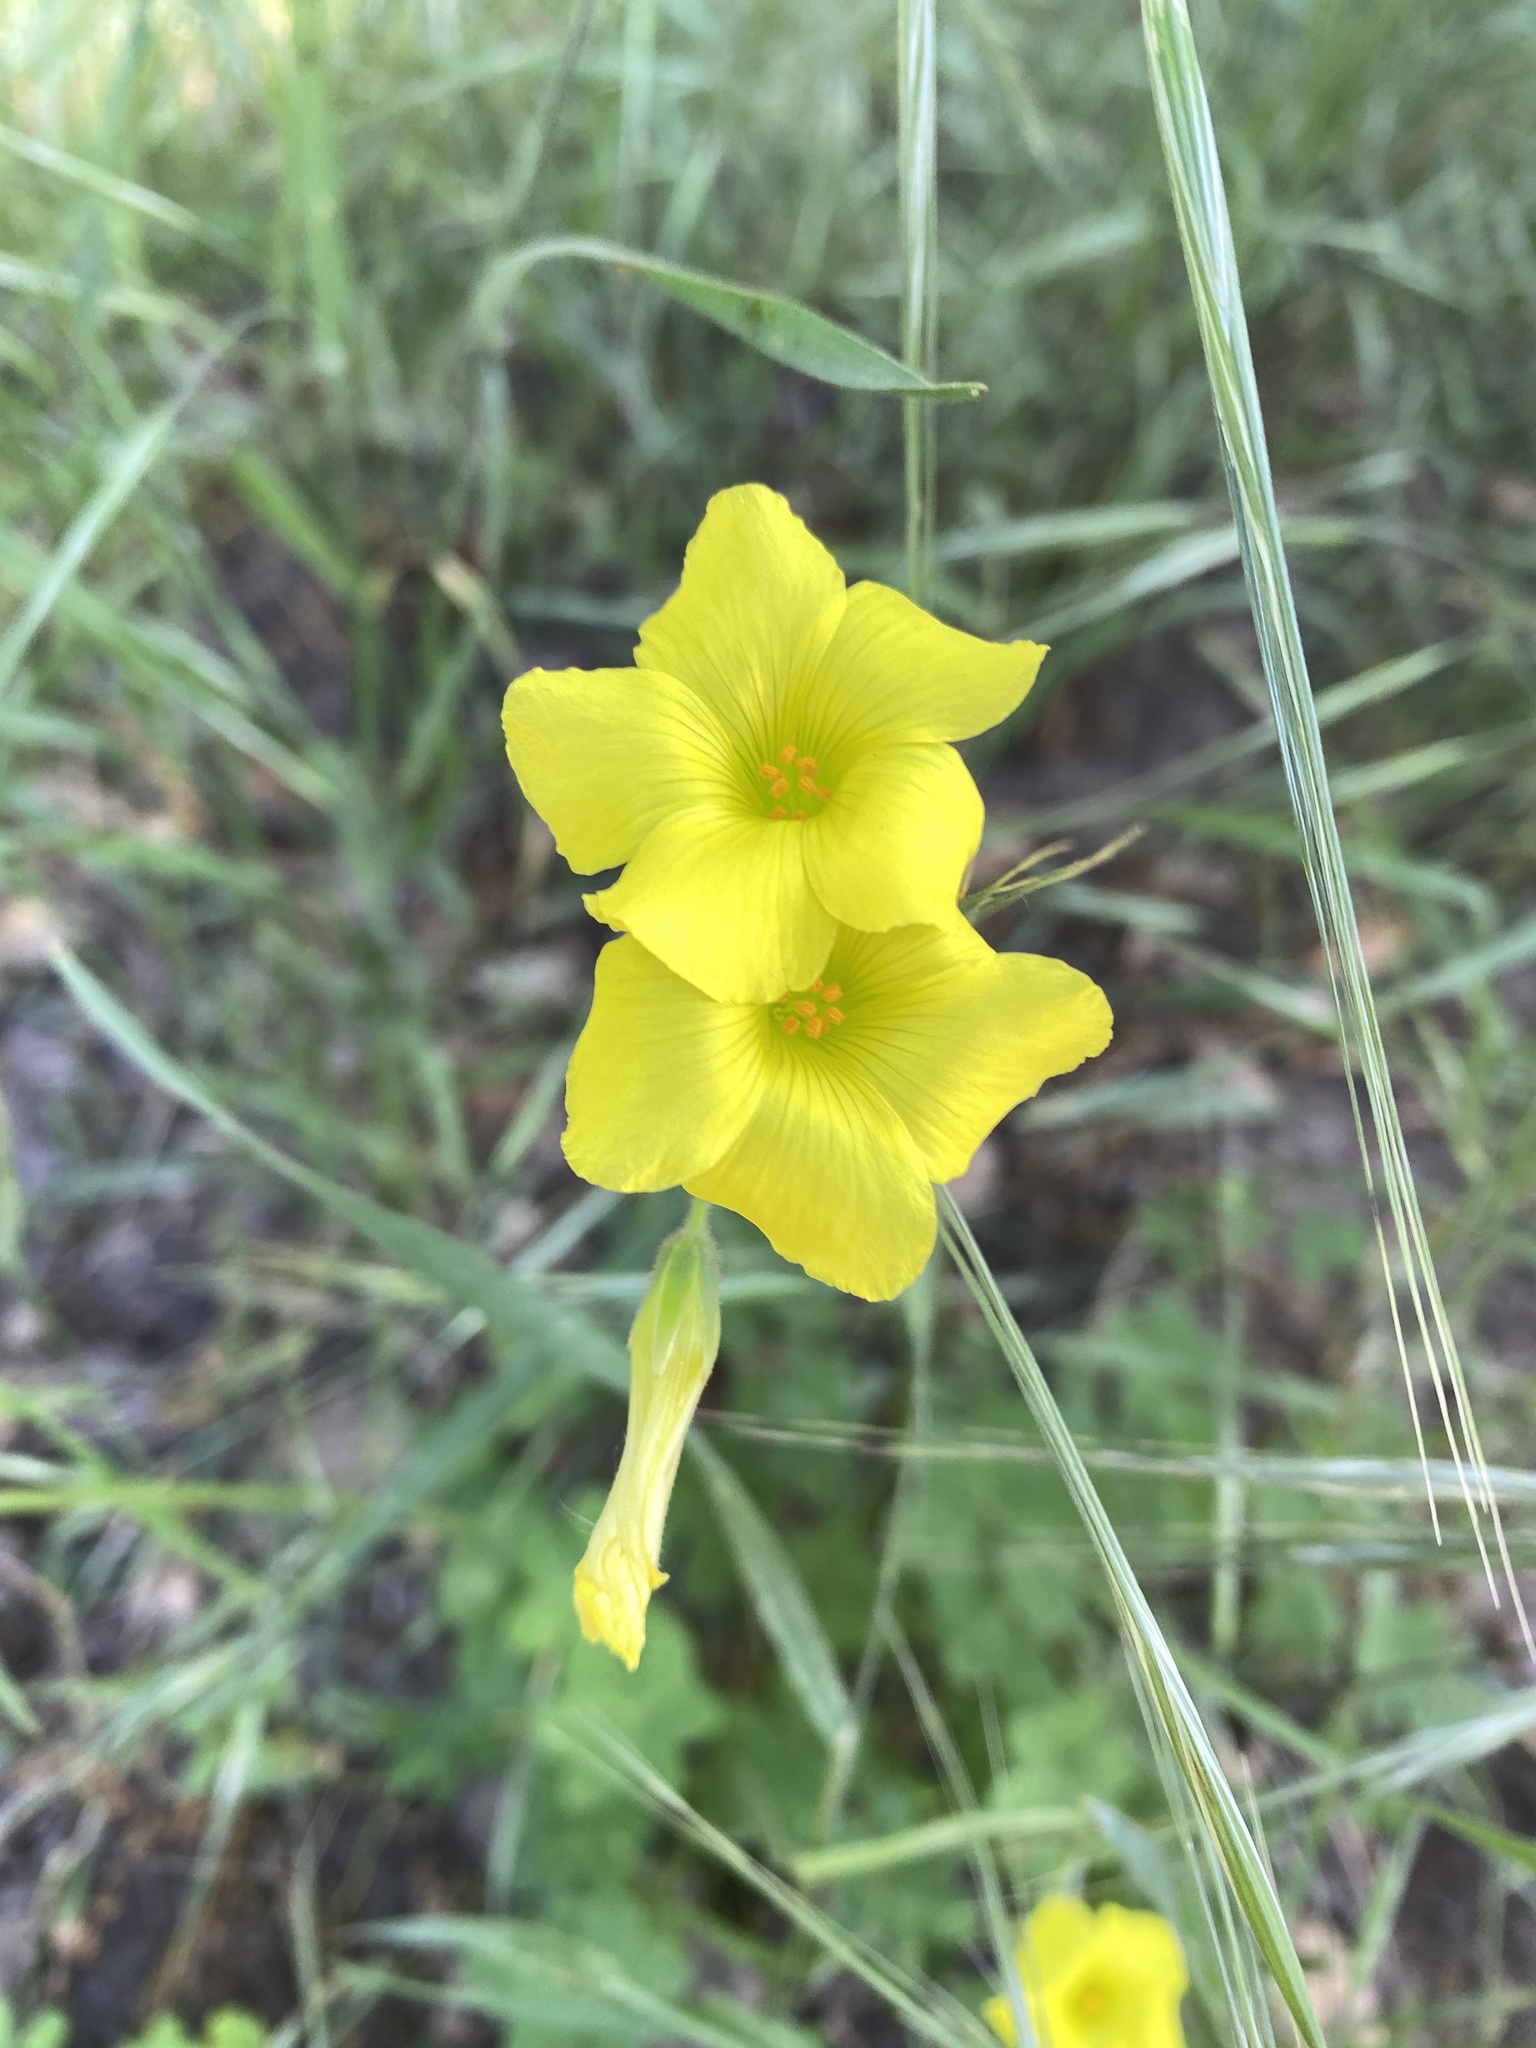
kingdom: Plantae
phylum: Tracheophyta
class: Magnoliopsida
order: Oxalidales
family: Oxalidaceae
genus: Oxalis
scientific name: Oxalis pes-caprae
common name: Bermuda-buttercup
